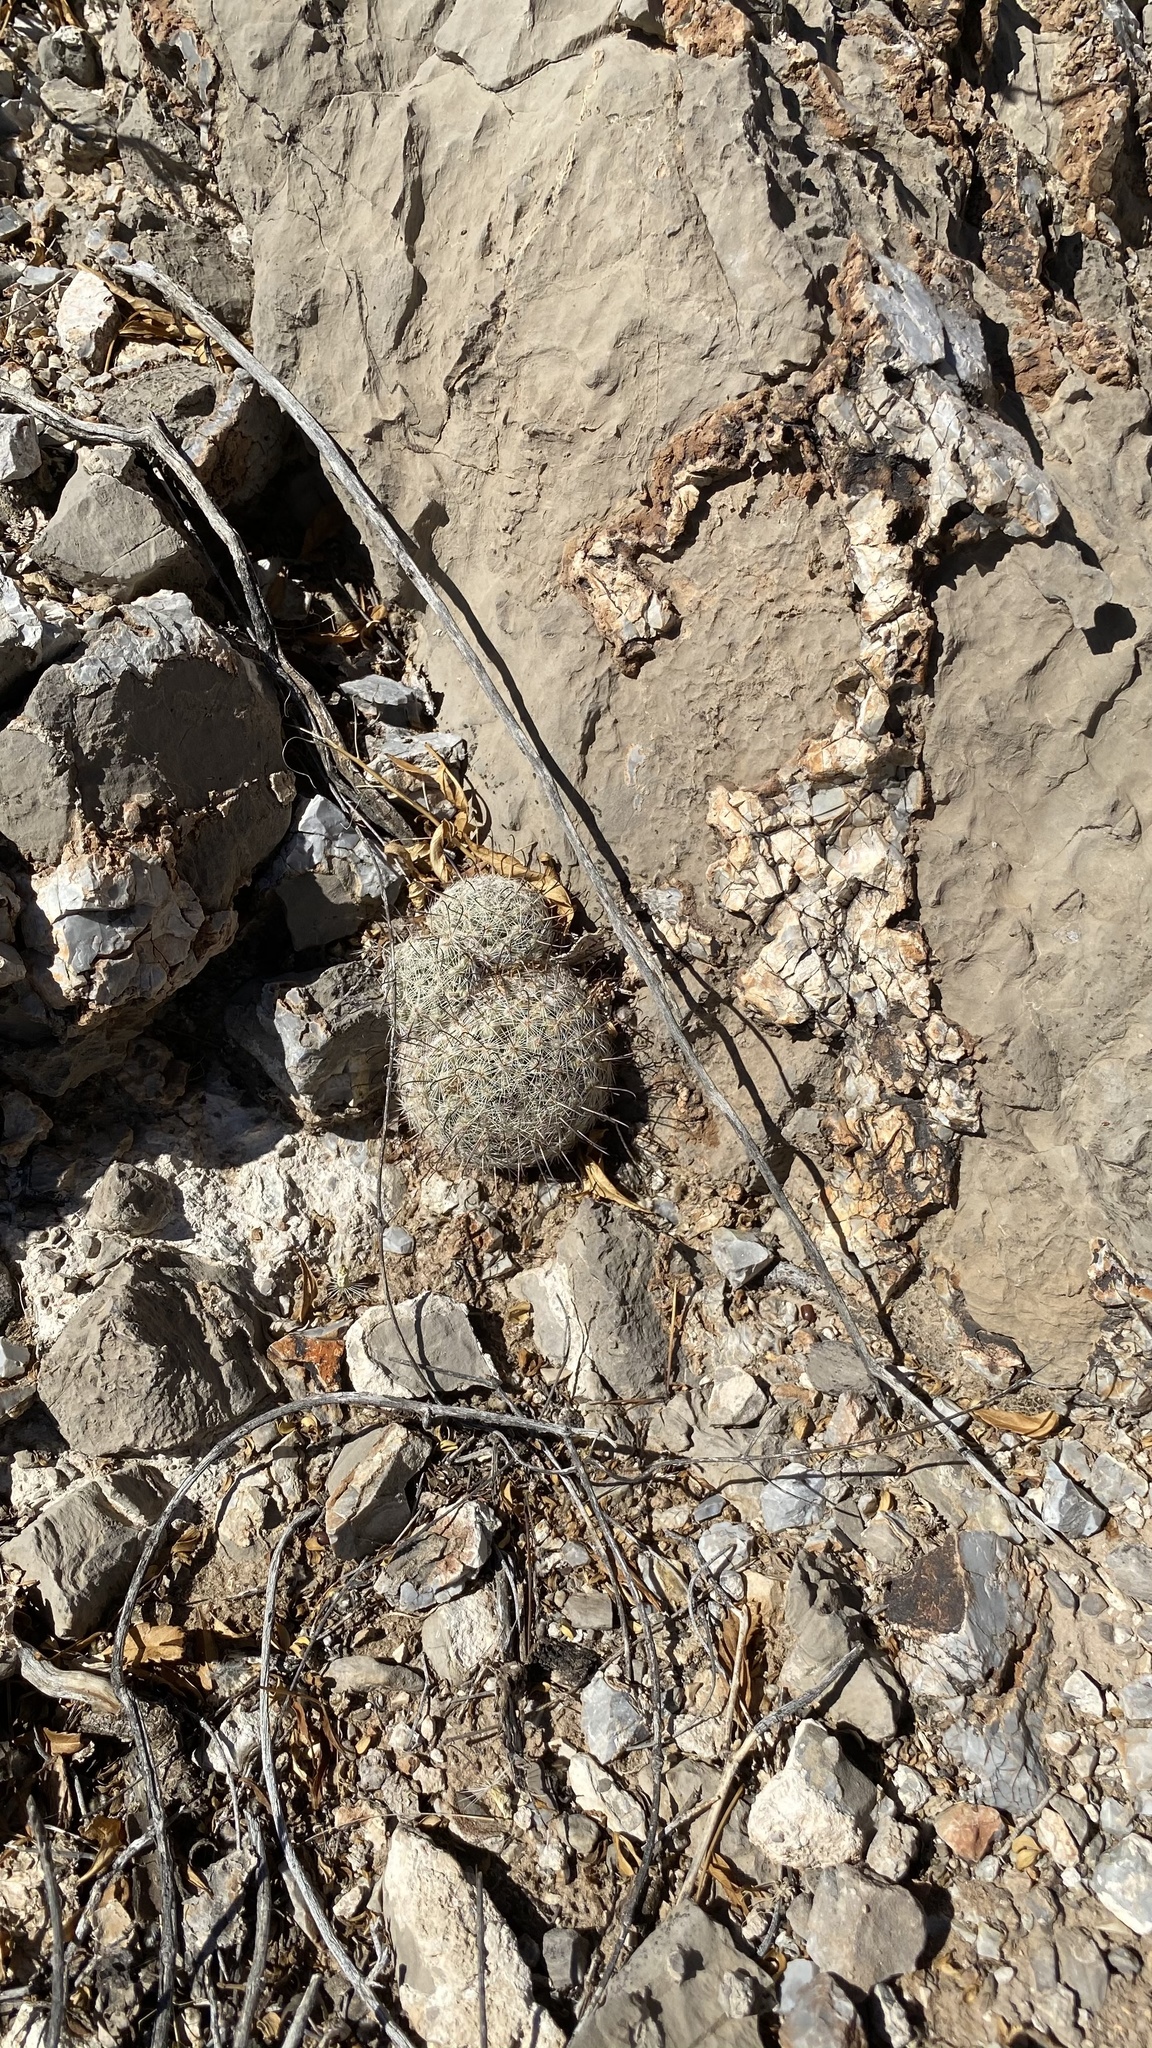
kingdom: Plantae
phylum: Tracheophyta
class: Magnoliopsida
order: Caryophyllales
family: Cactaceae
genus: Cochemiea
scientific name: Cochemiea grahamii
